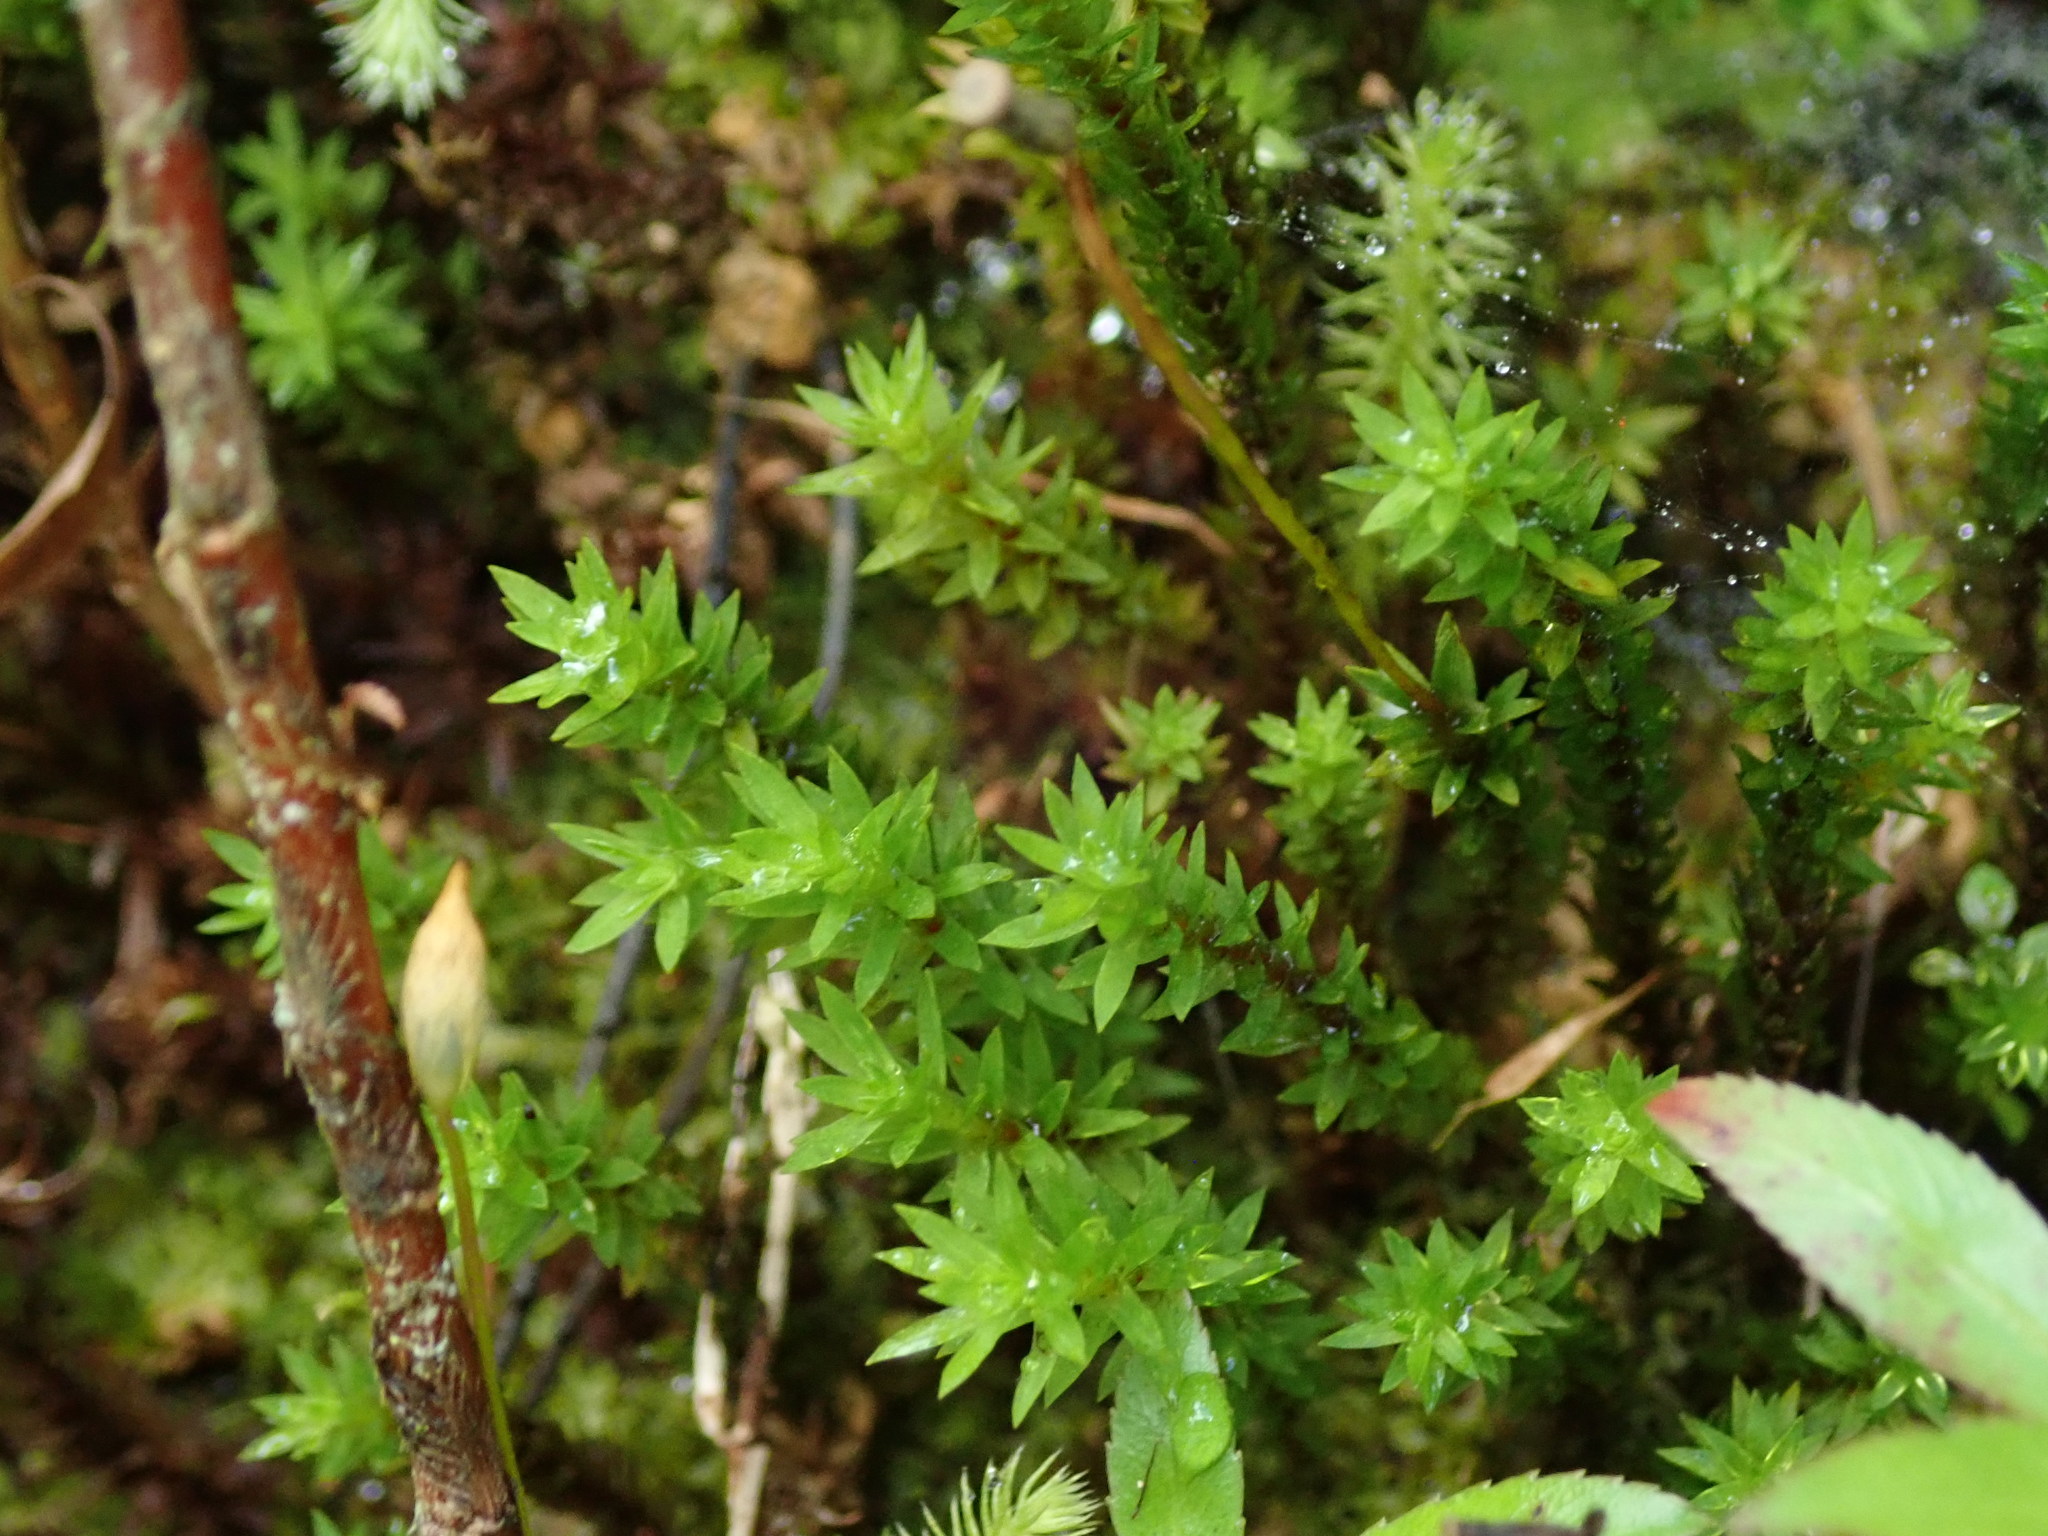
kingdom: Plantae
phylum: Bryophyta
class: Polytrichopsida
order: Polytrichales
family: Polytrichaceae
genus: Pogonatum
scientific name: Pogonatum tortile
